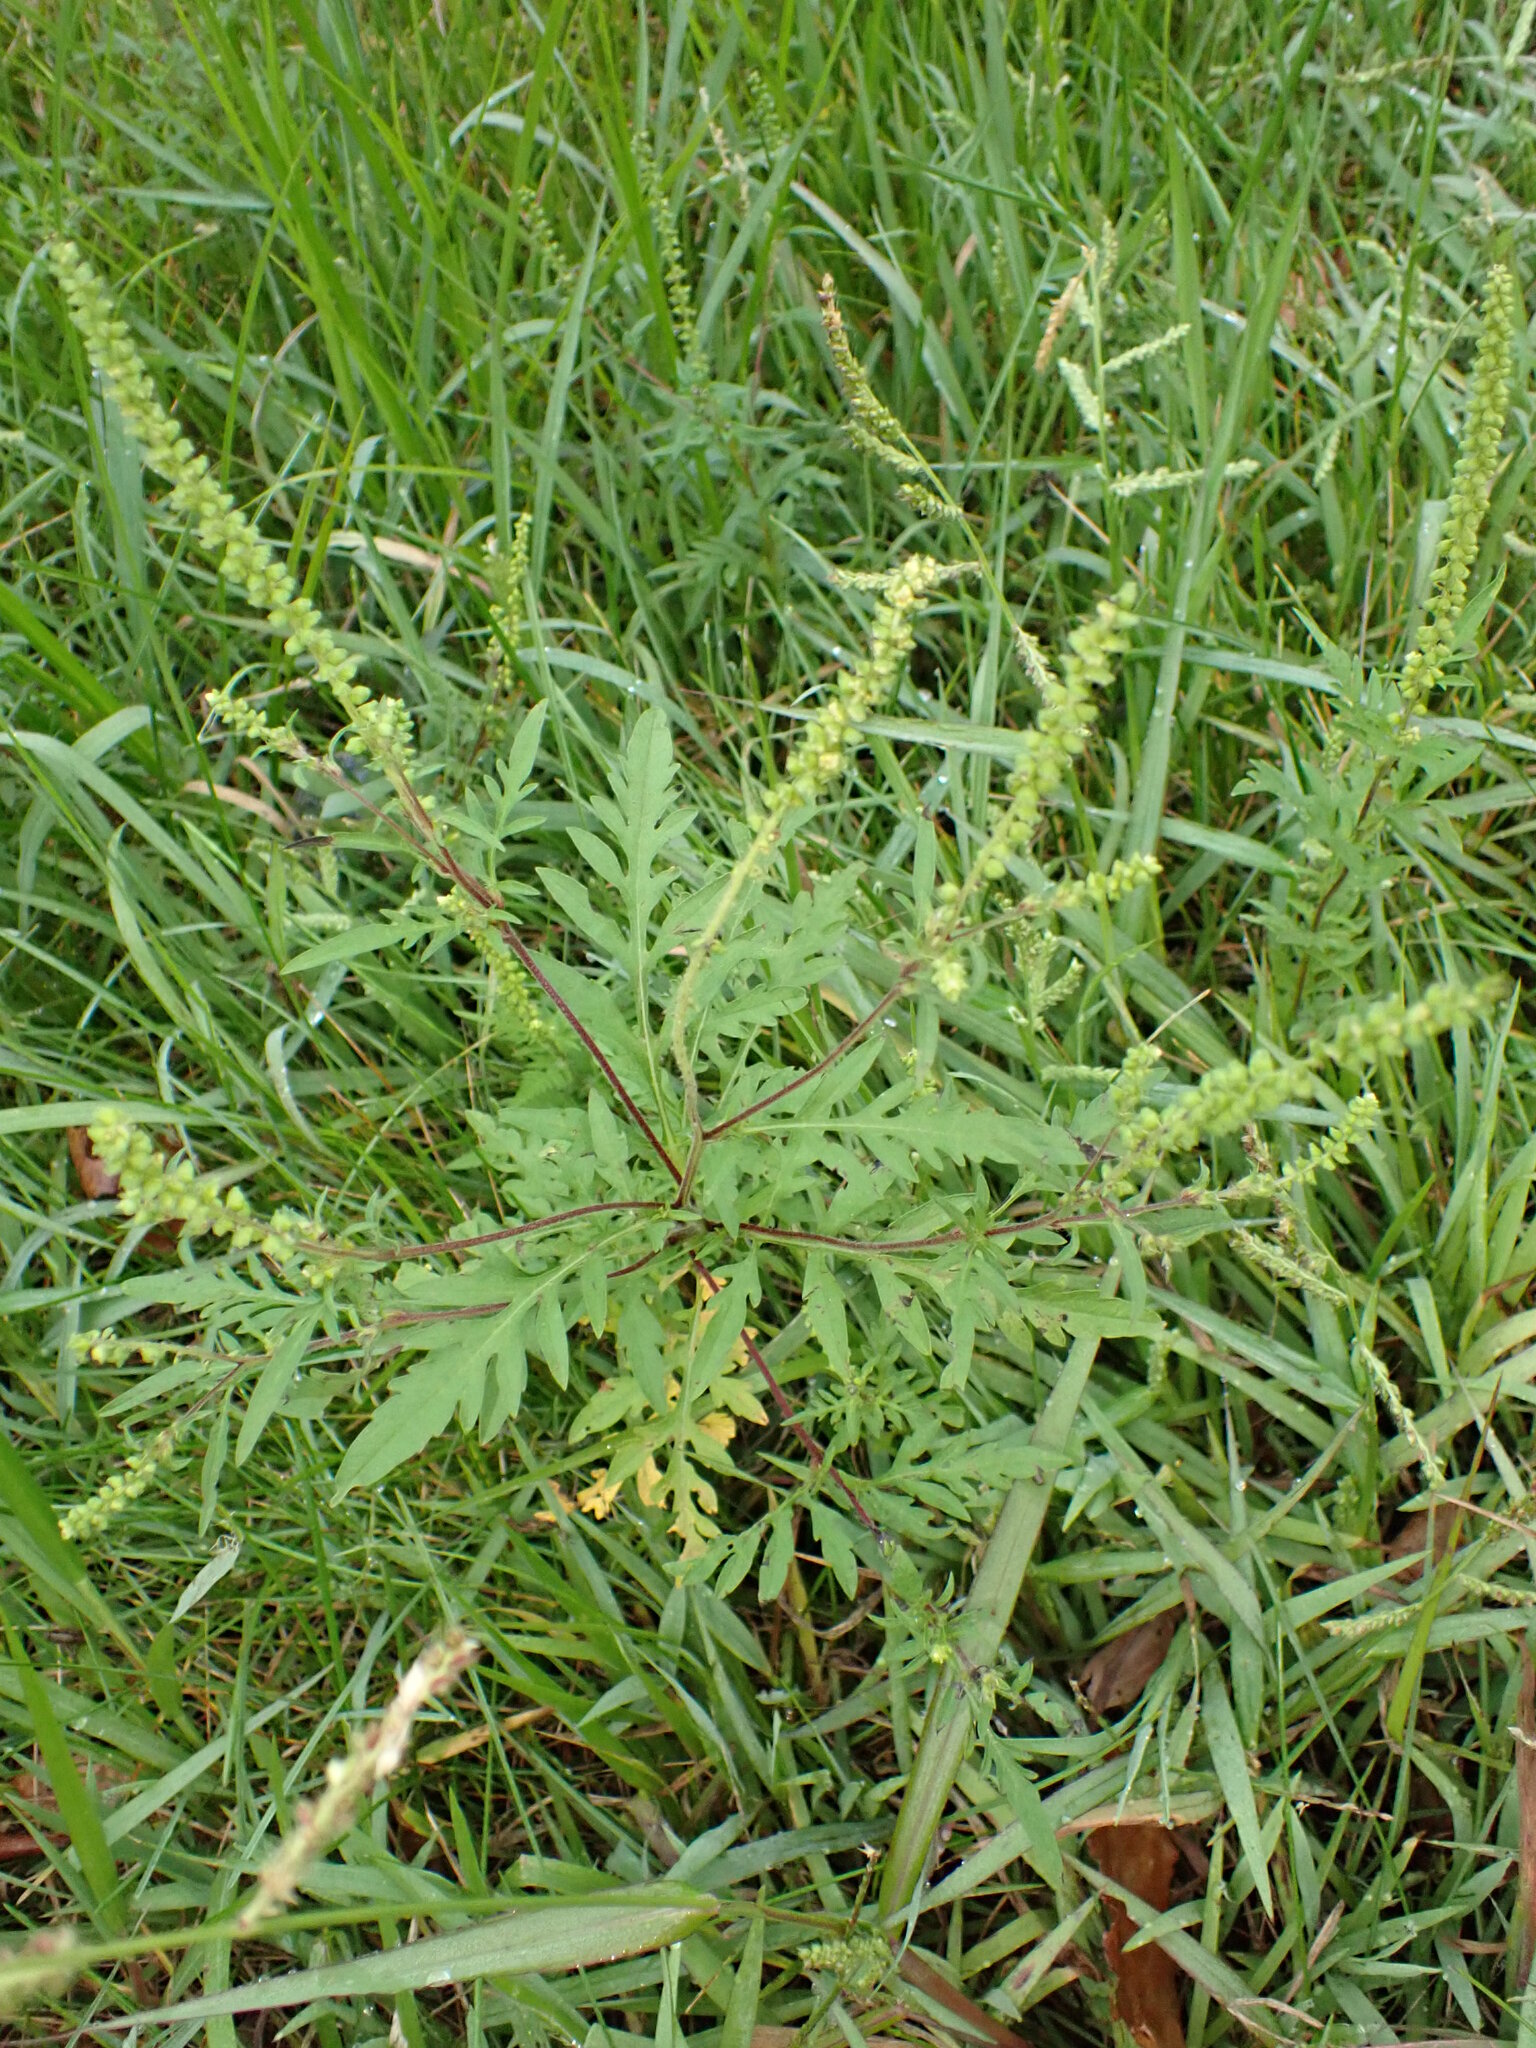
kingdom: Plantae
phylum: Tracheophyta
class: Magnoliopsida
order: Asterales
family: Asteraceae
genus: Ambrosia
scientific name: Ambrosia artemisiifolia
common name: Annual ragweed
